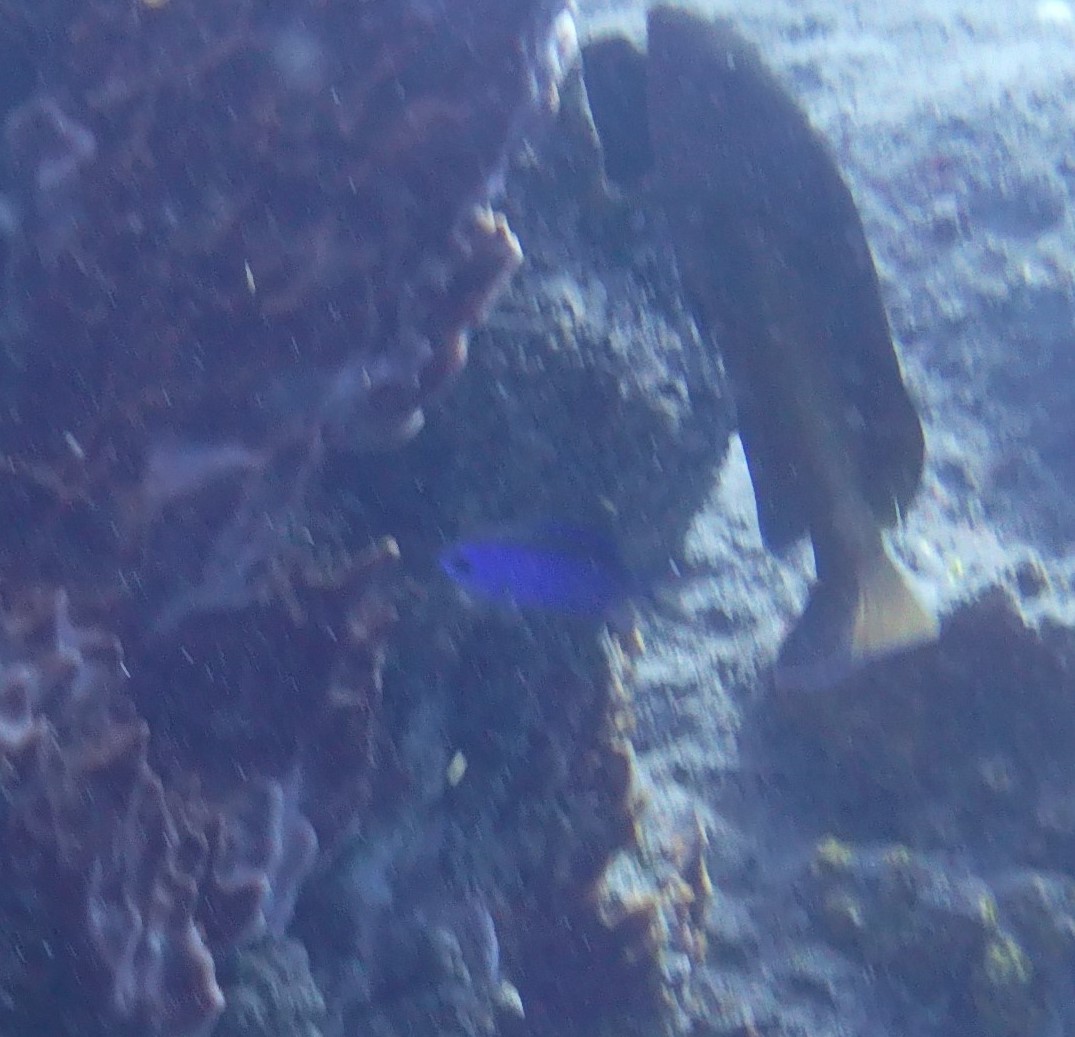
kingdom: Animalia
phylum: Chordata
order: Perciformes
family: Pomacentridae
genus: Chromis
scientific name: Chromis cyanea
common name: Blue chromis
